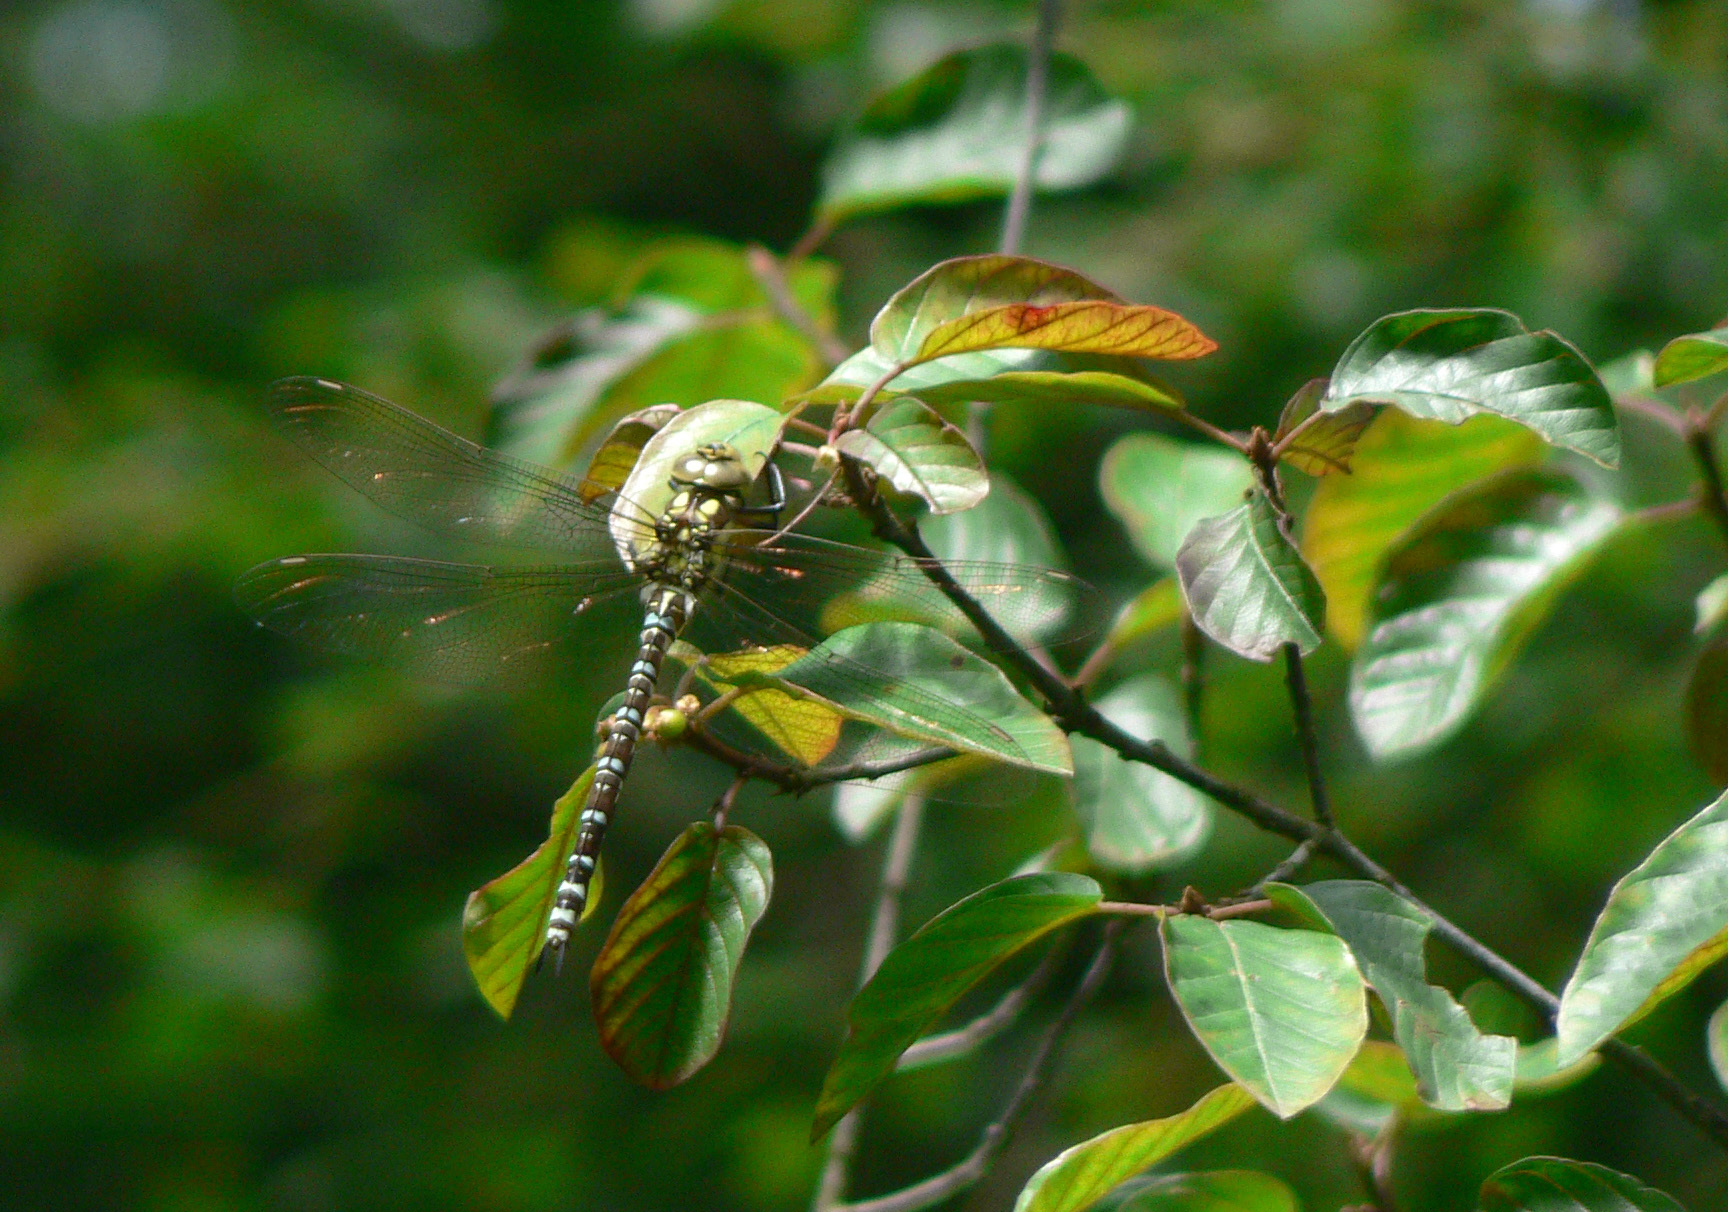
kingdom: Animalia
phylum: Arthropoda
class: Insecta
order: Odonata
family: Aeshnidae
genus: Aeshna
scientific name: Aeshna cyanea
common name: Southern hawker
